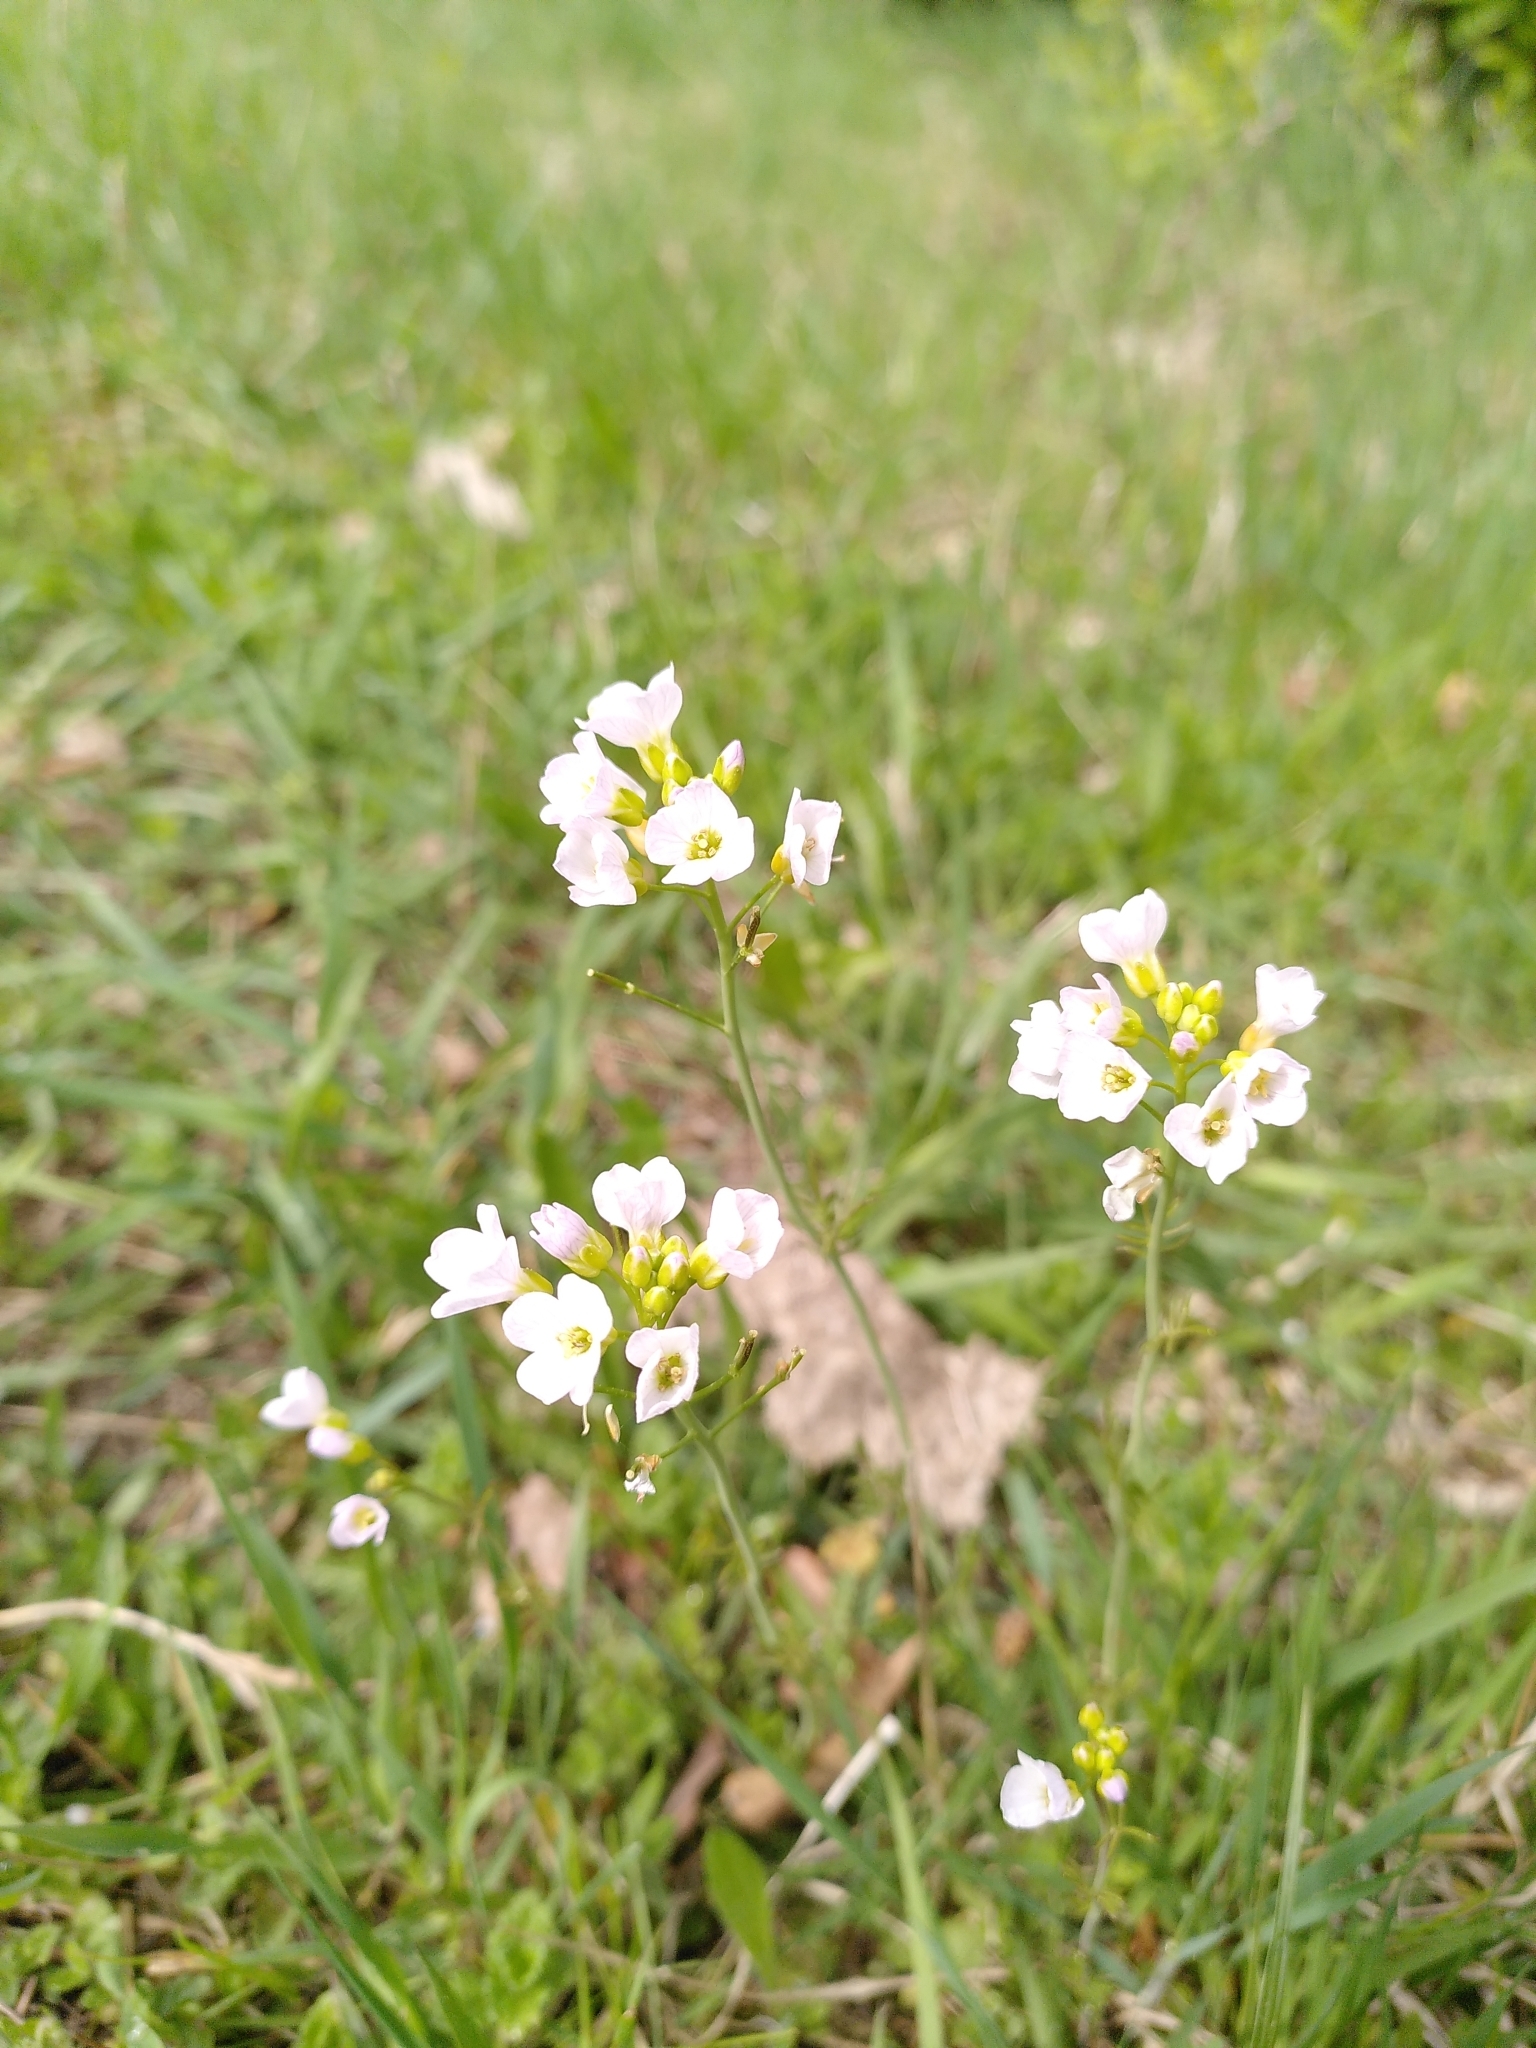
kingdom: Plantae
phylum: Tracheophyta
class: Magnoliopsida
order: Brassicales
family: Brassicaceae
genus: Cardamine
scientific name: Cardamine pratensis
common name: Cuckoo flower
